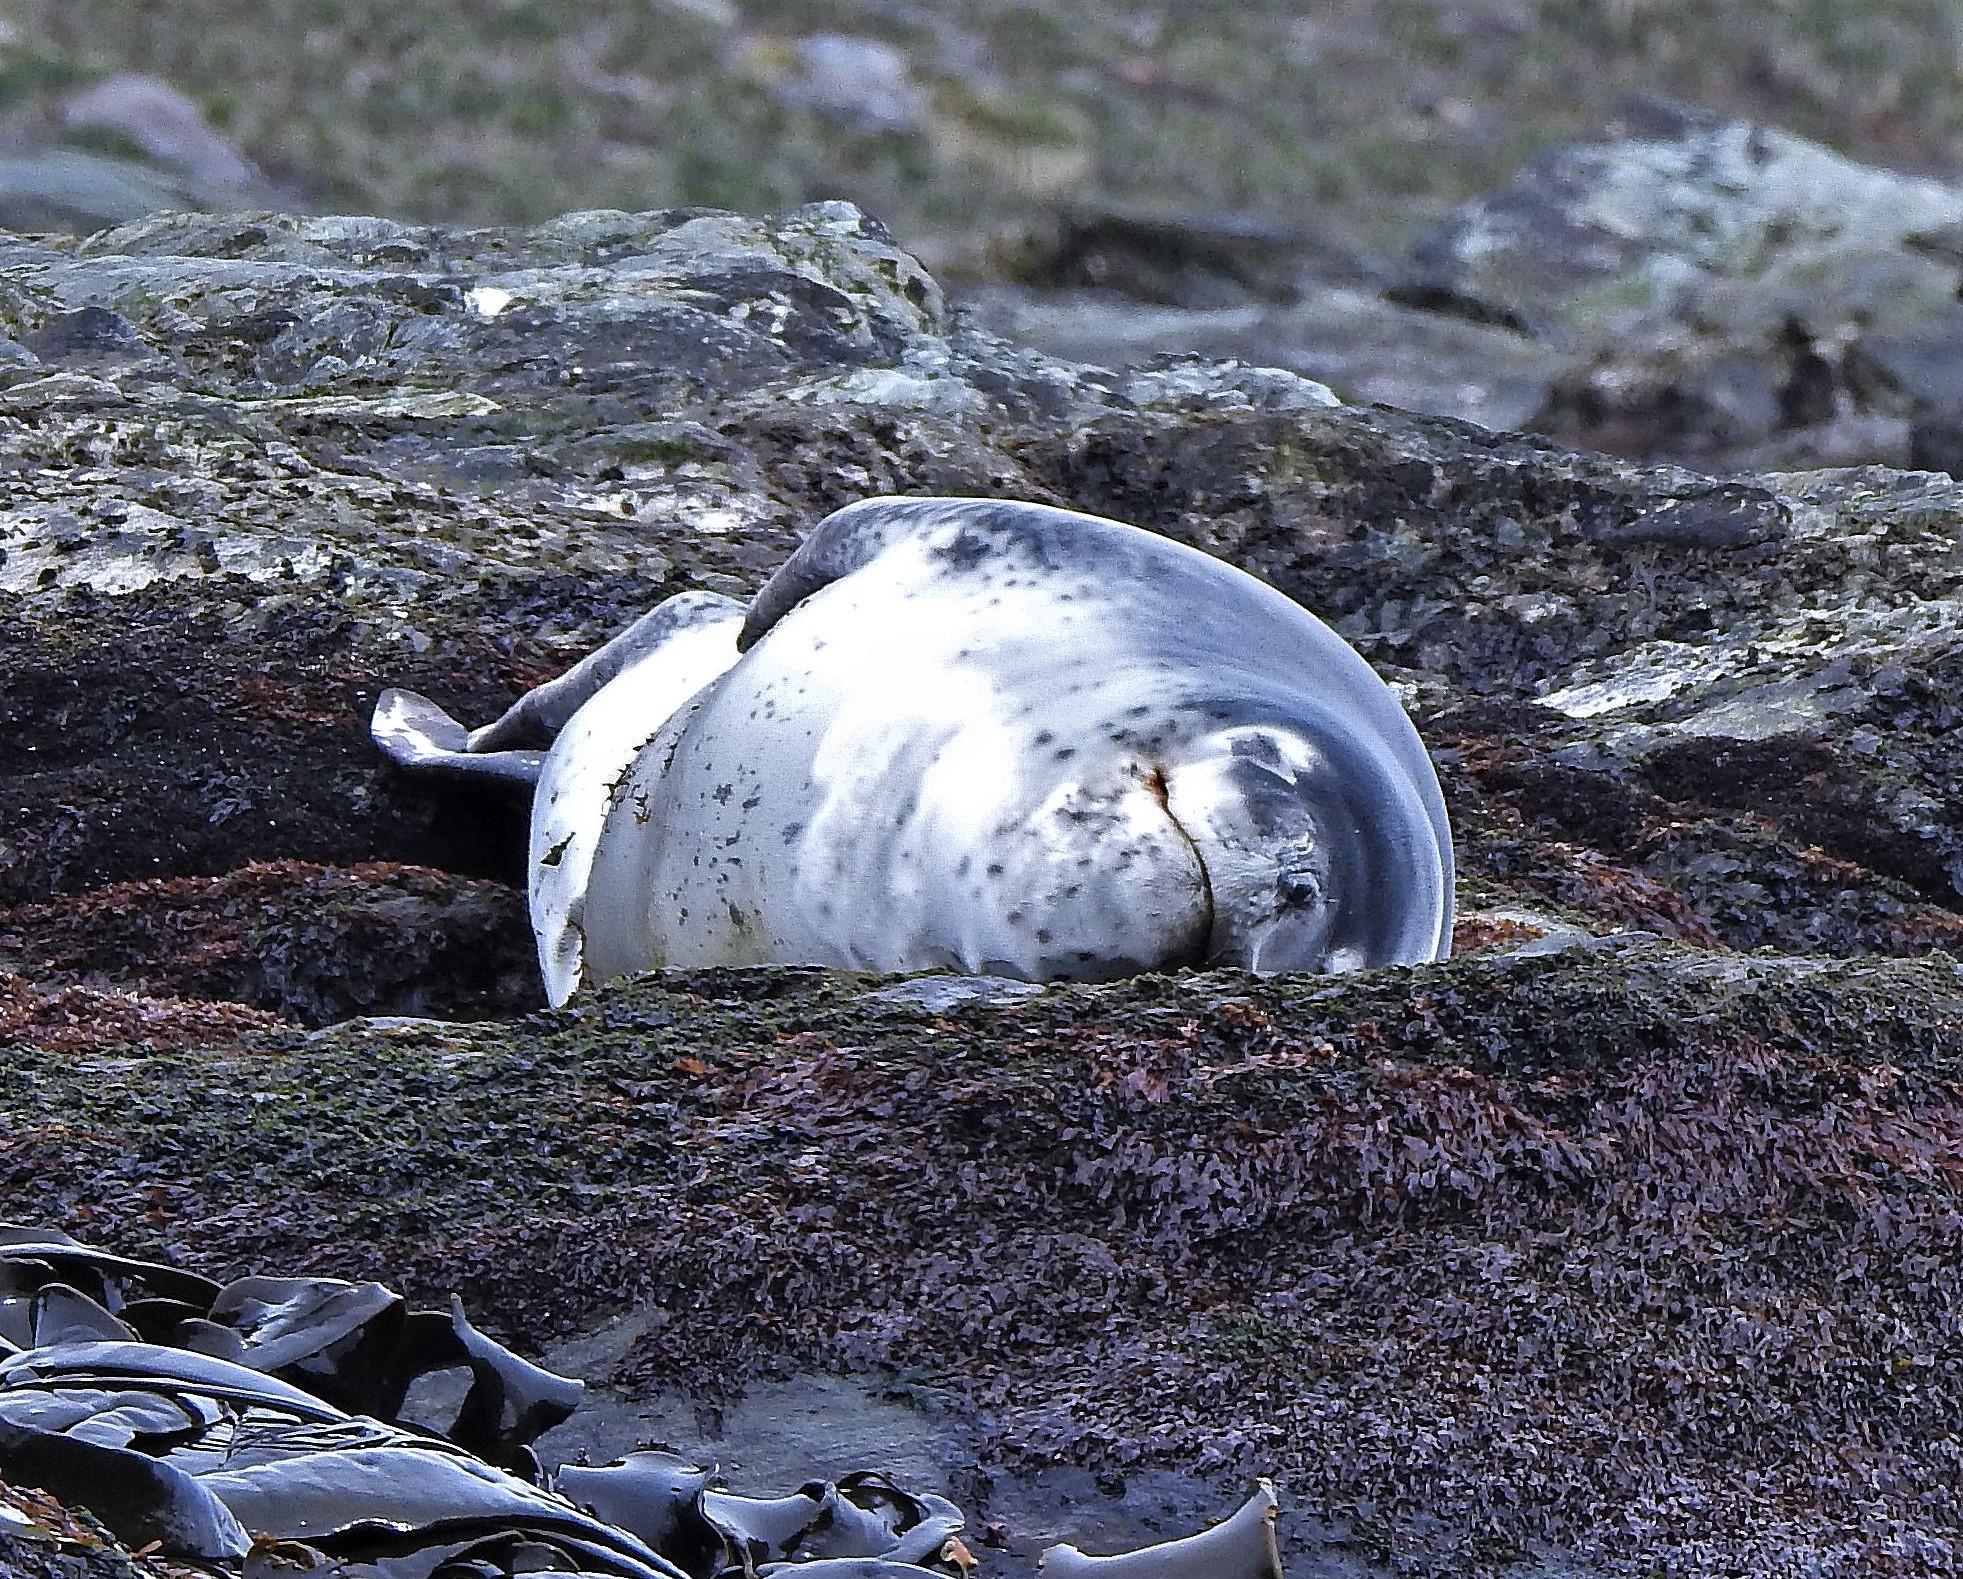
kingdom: Animalia
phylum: Chordata
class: Mammalia
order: Carnivora
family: Phocidae
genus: Hydrurga
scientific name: Hydrurga leptonyx
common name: Leopard seal
